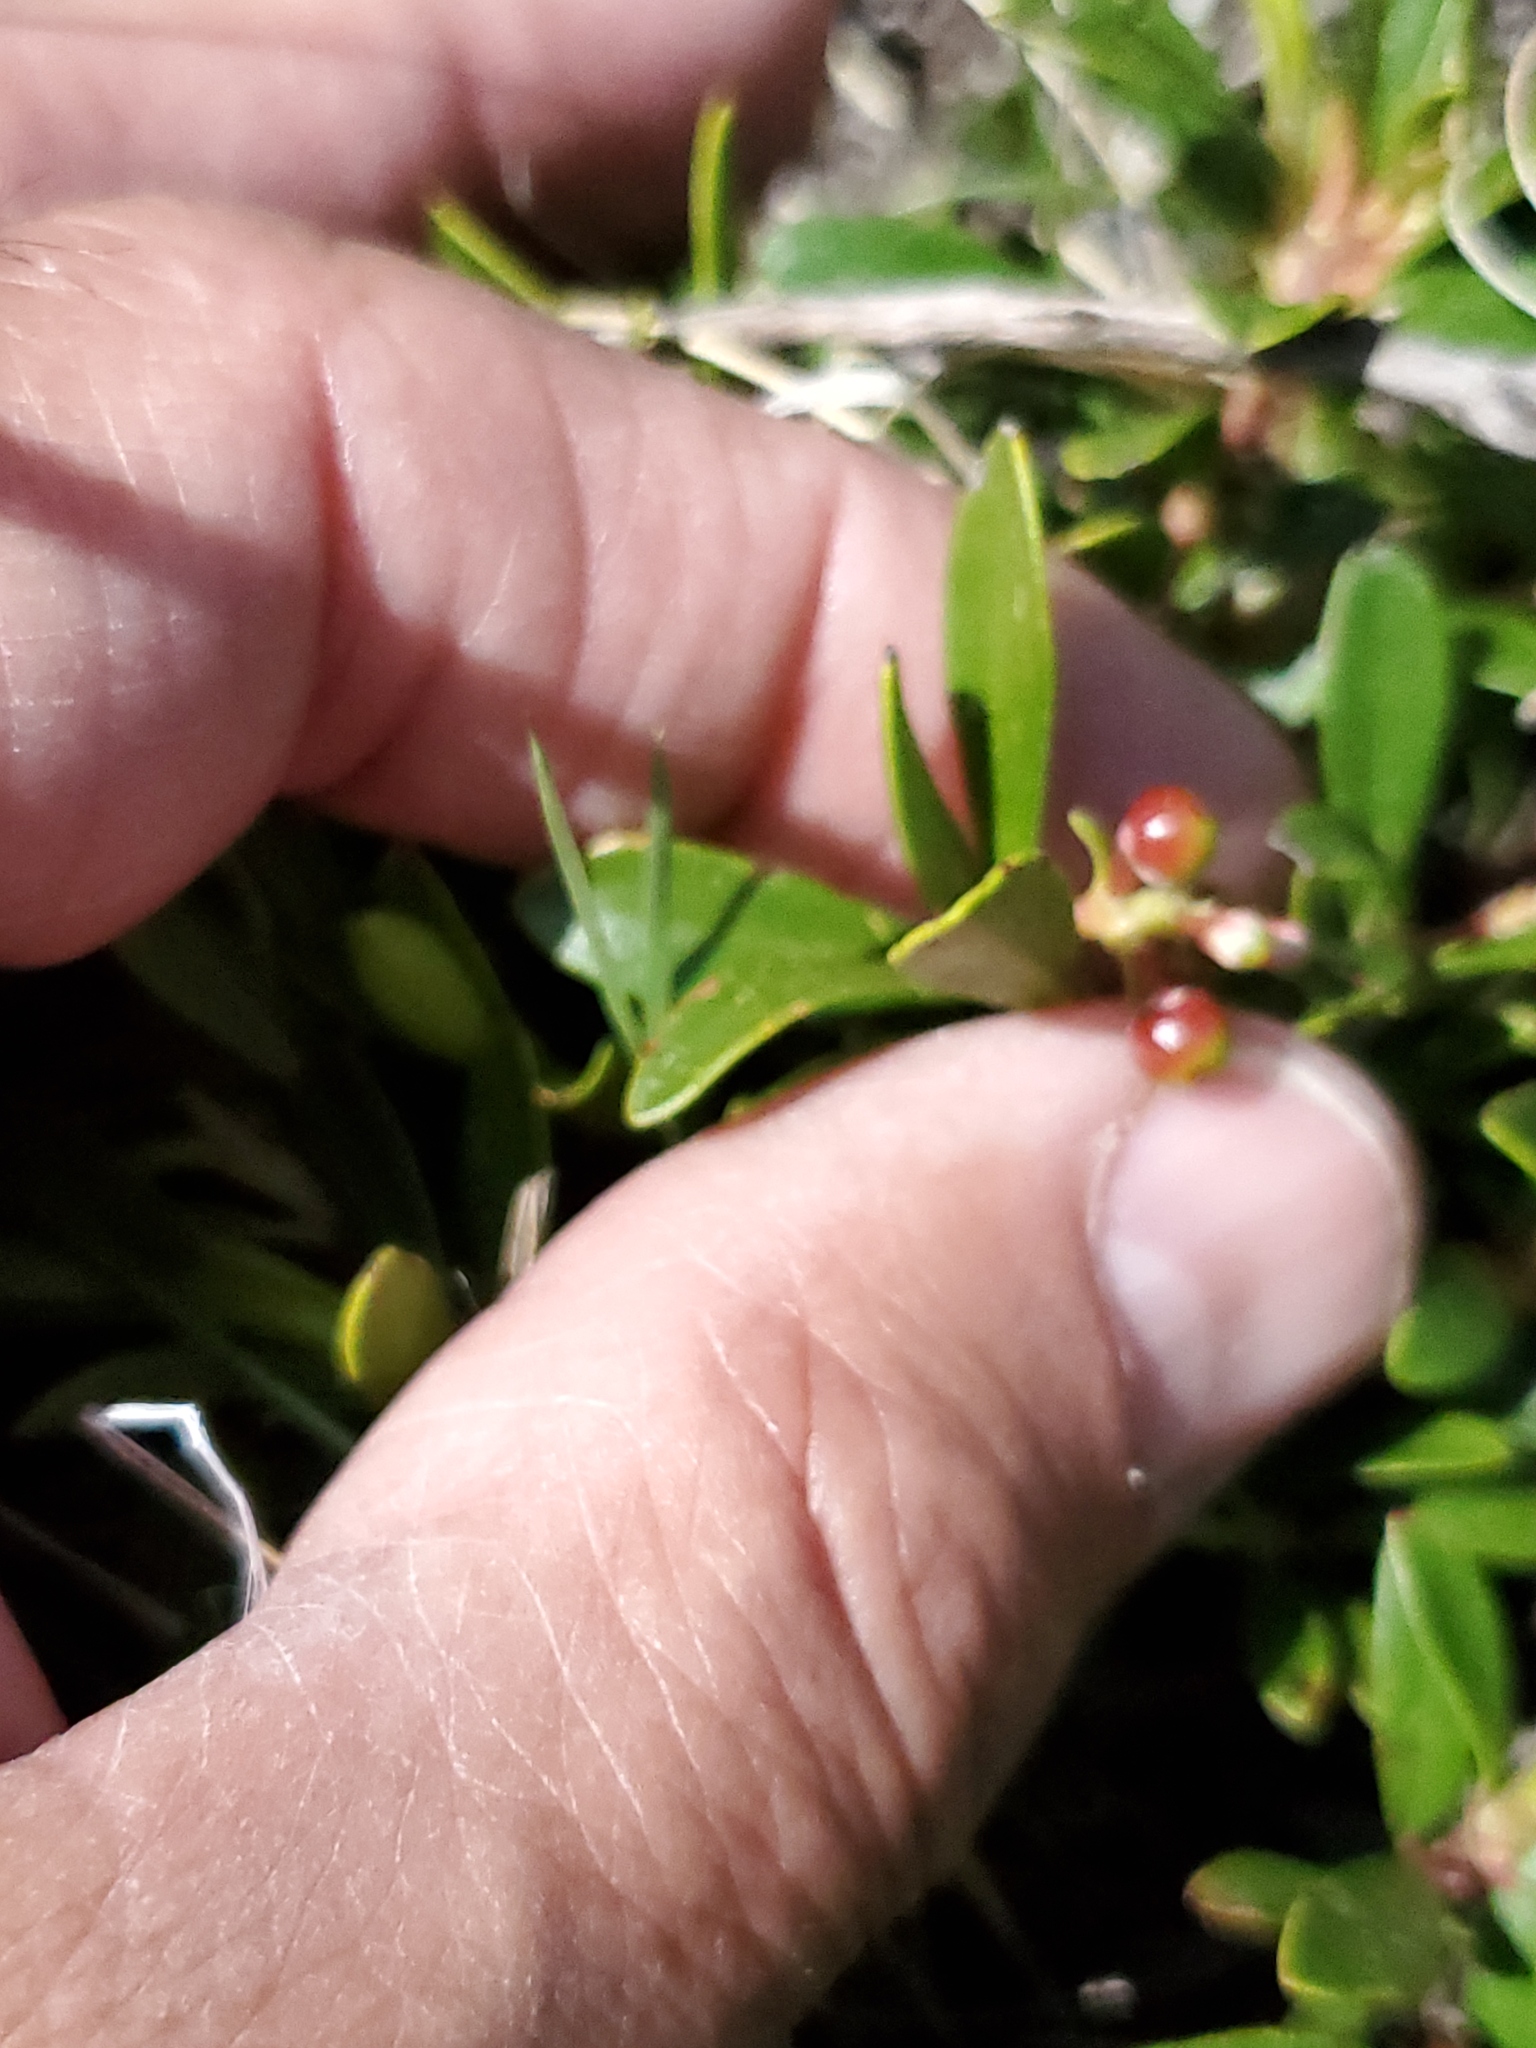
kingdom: Plantae
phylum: Tracheophyta
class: Magnoliopsida
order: Ericales
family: Ericaceae
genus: Arctostaphylos
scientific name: Arctostaphylos uva-ursi
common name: Bearberry
